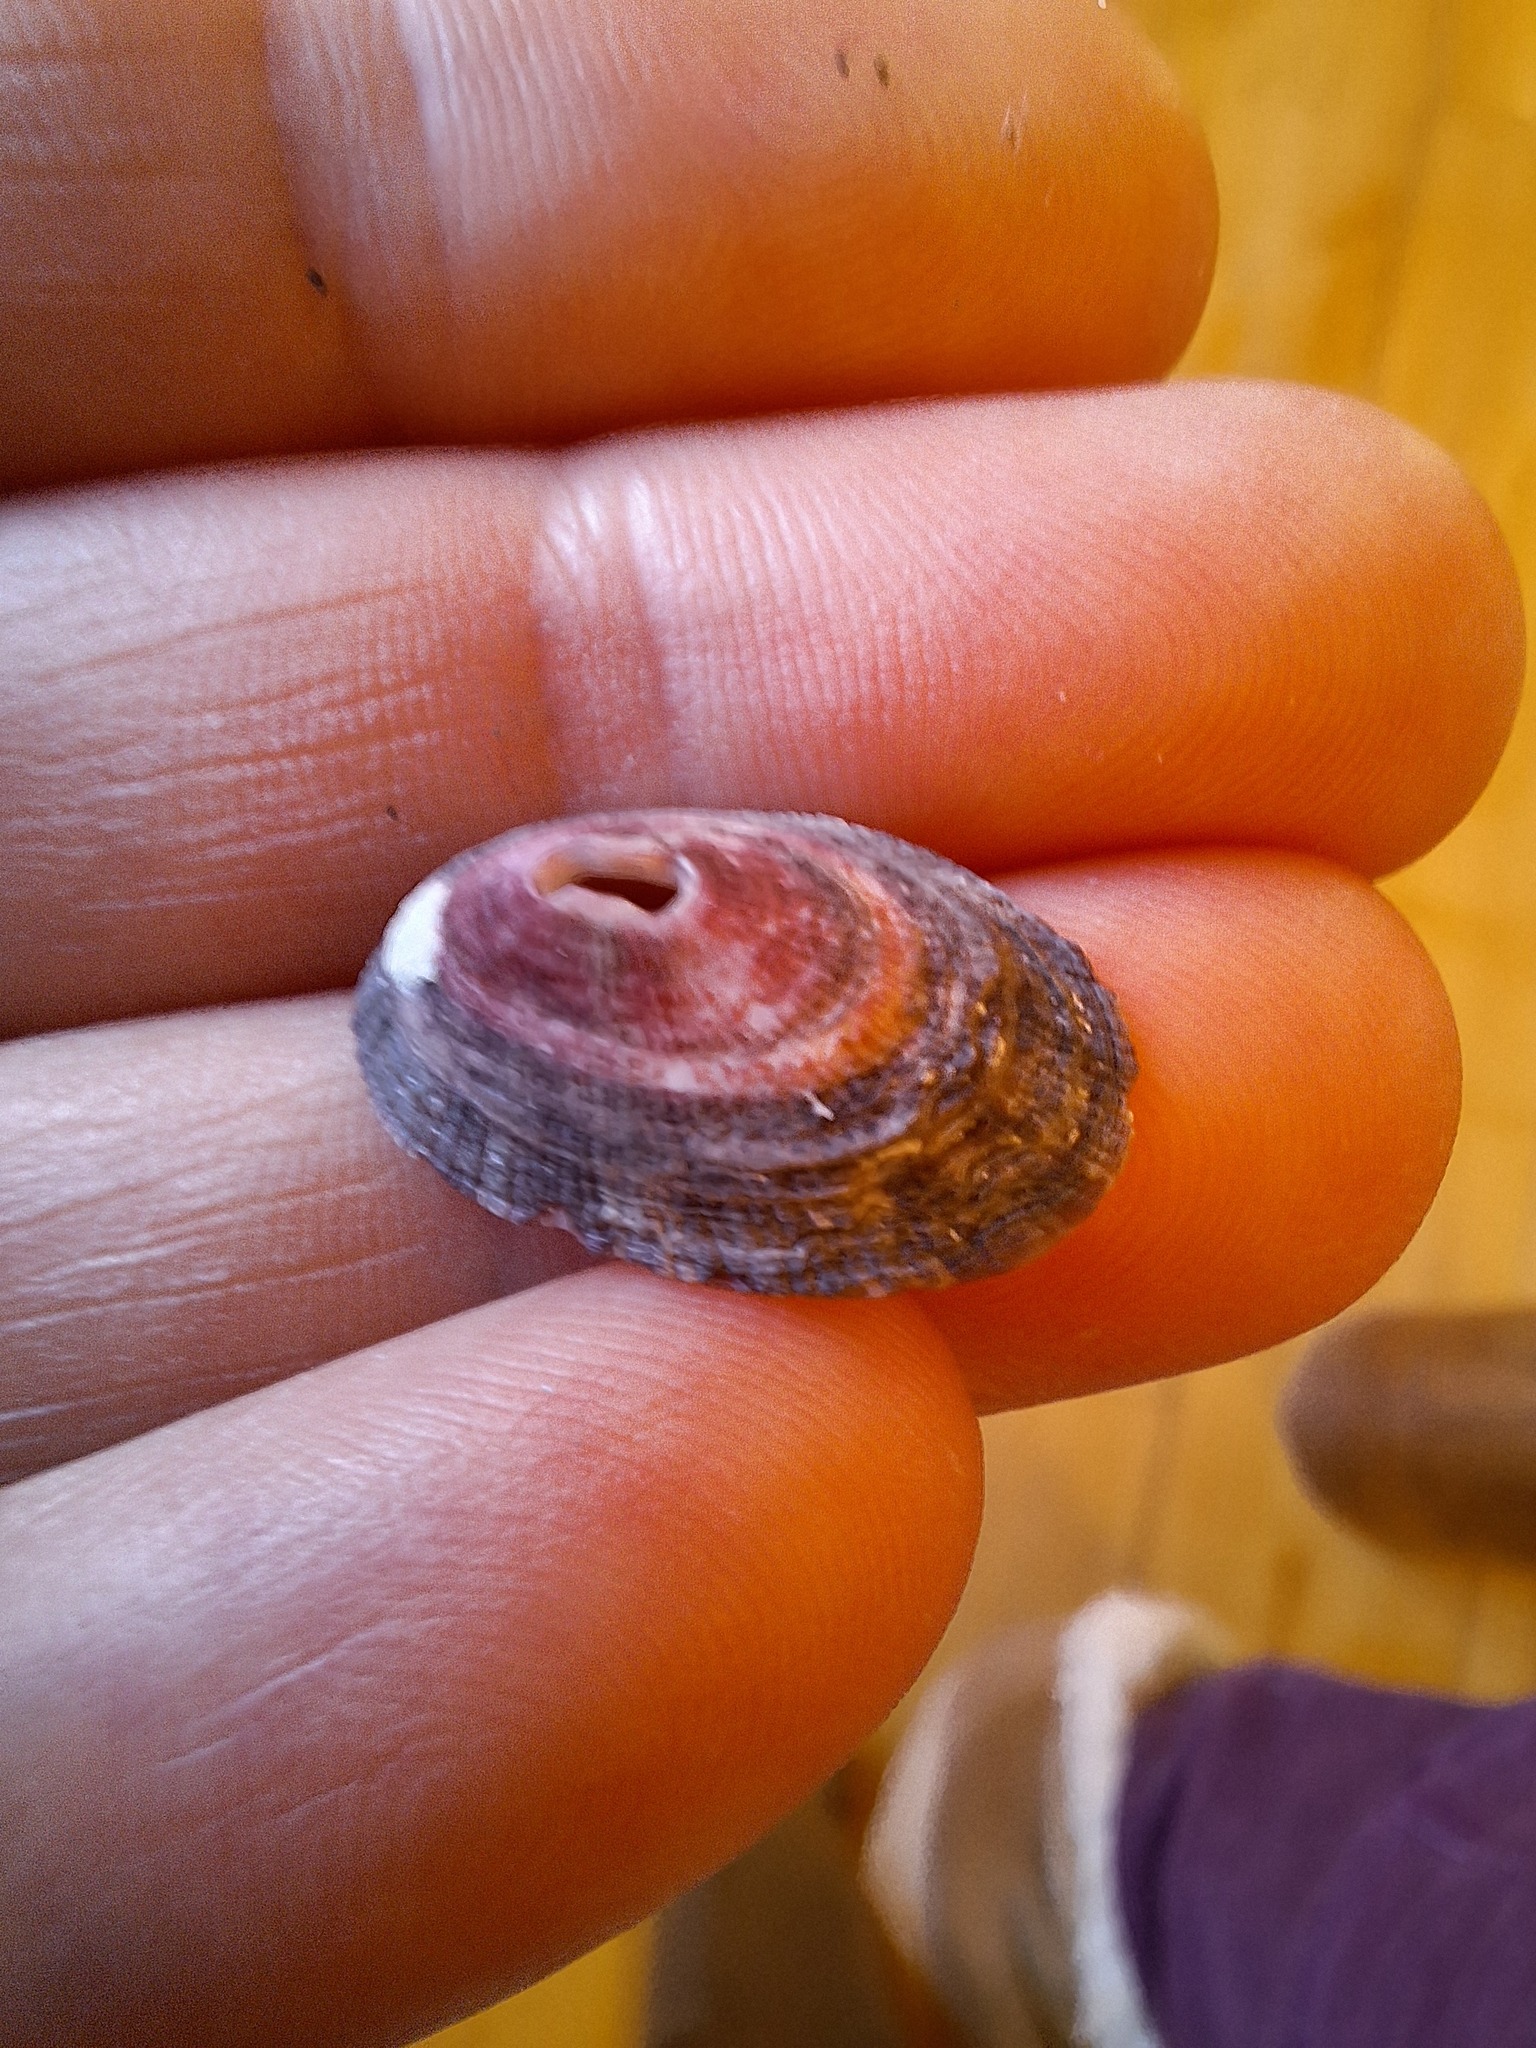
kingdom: Animalia
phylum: Mollusca
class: Gastropoda
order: Lepetellida
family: Fissurellidae
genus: Fissurella
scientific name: Fissurella nubecula
